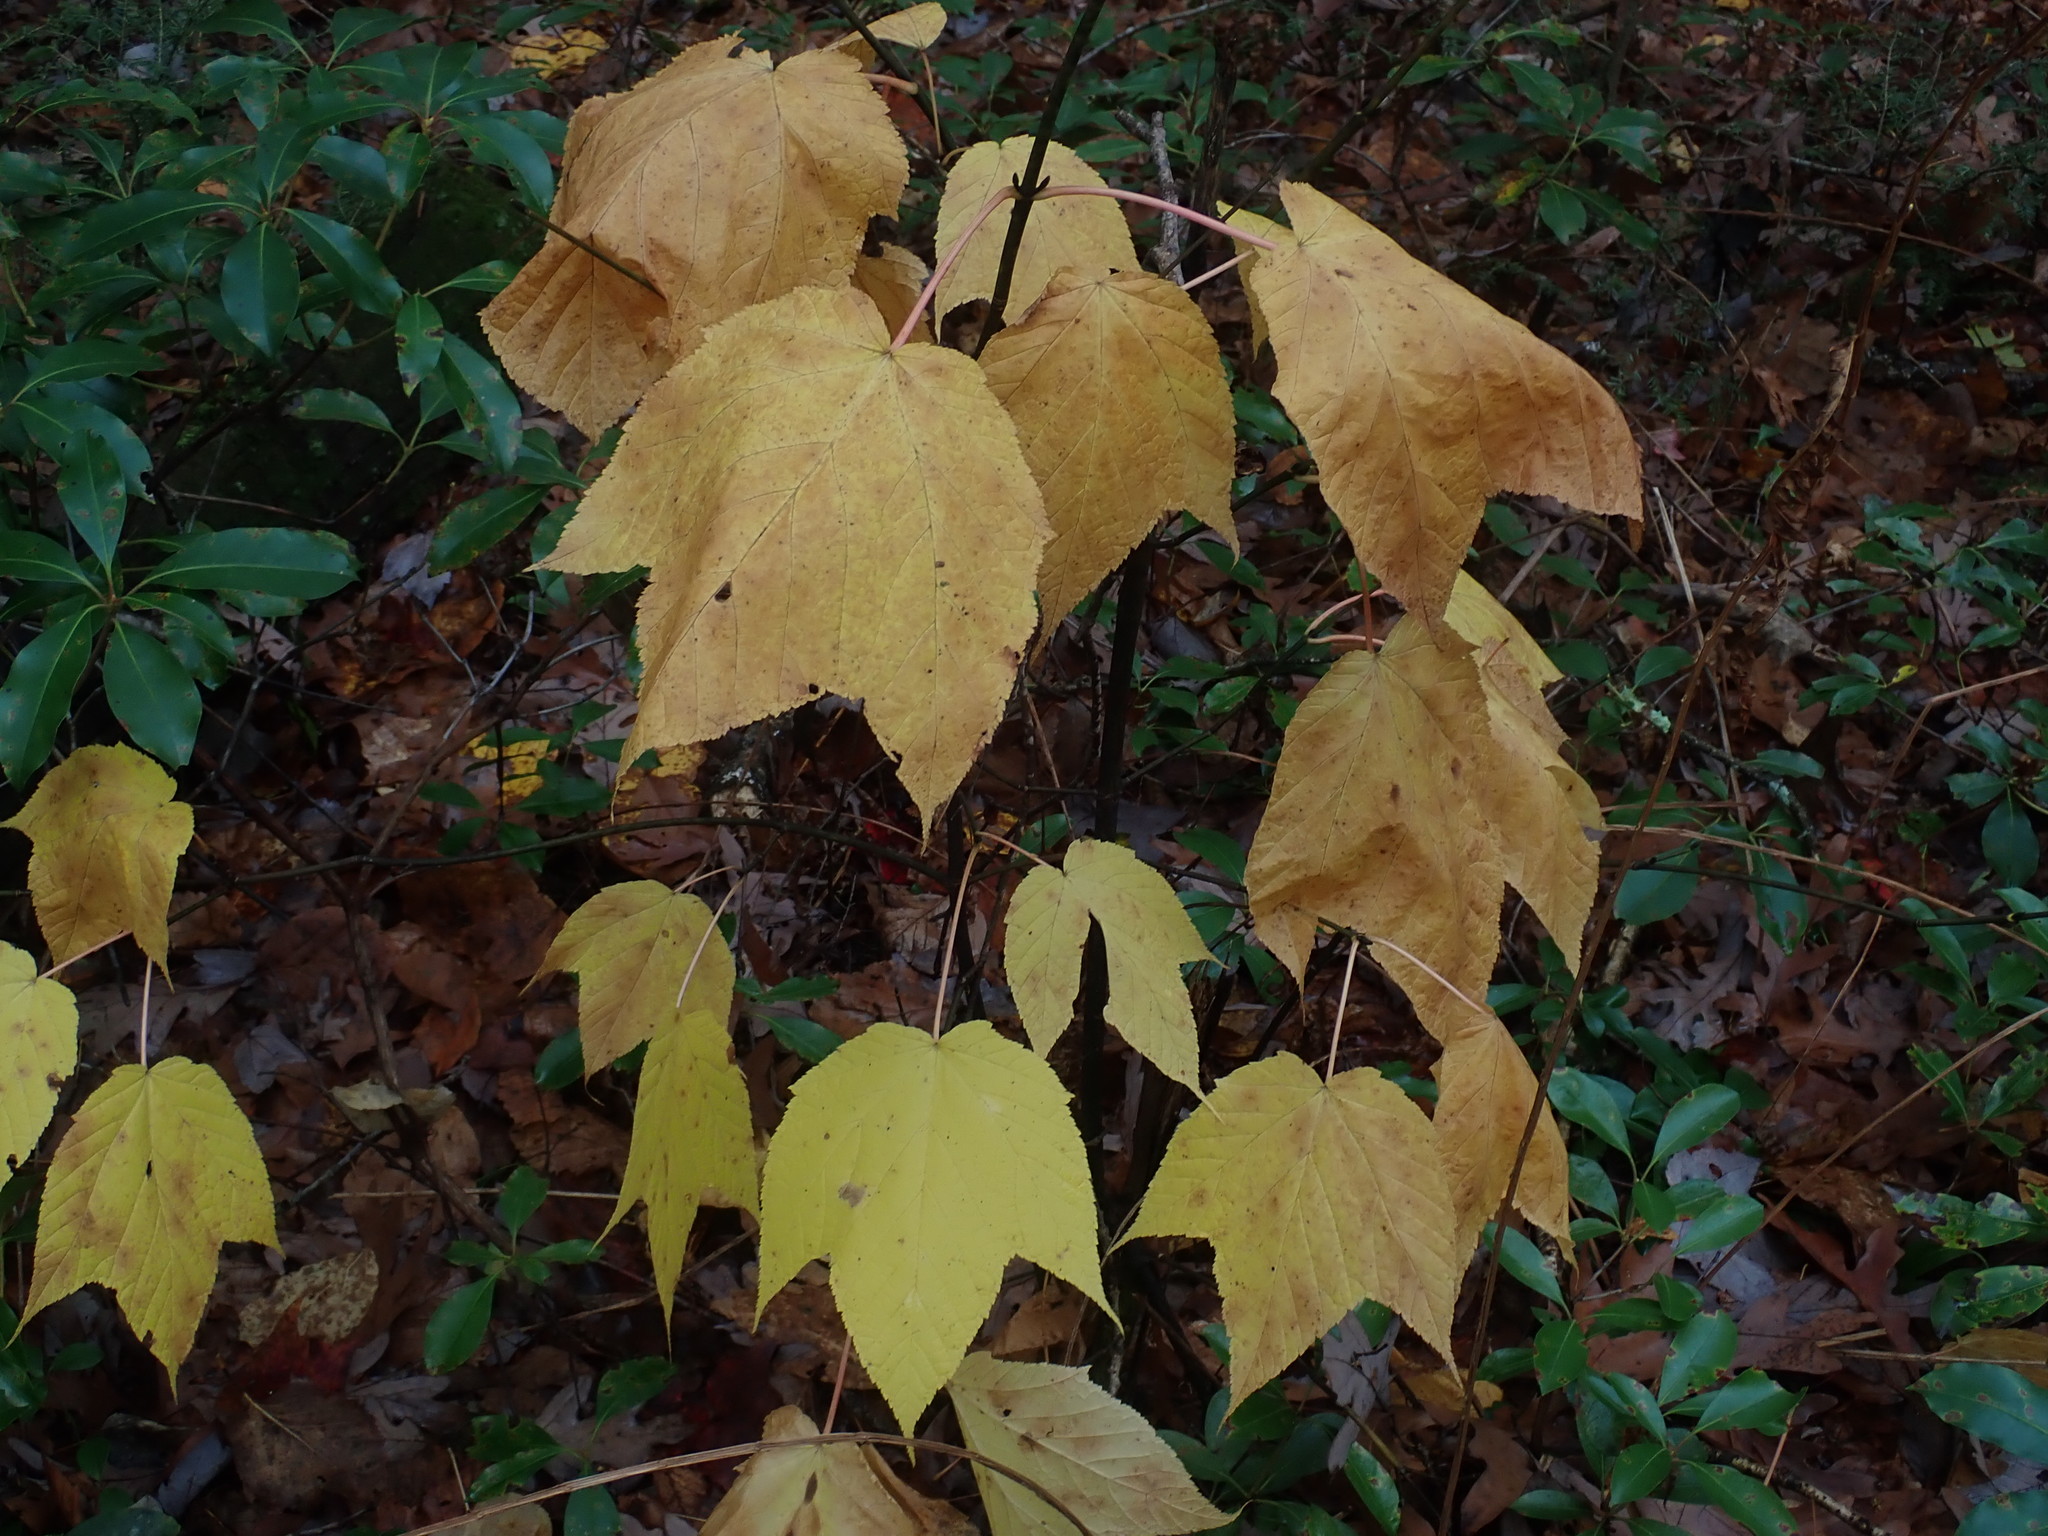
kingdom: Plantae
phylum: Tracheophyta
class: Magnoliopsida
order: Sapindales
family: Sapindaceae
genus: Acer
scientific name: Acer pensylvanicum
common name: Moosewood
